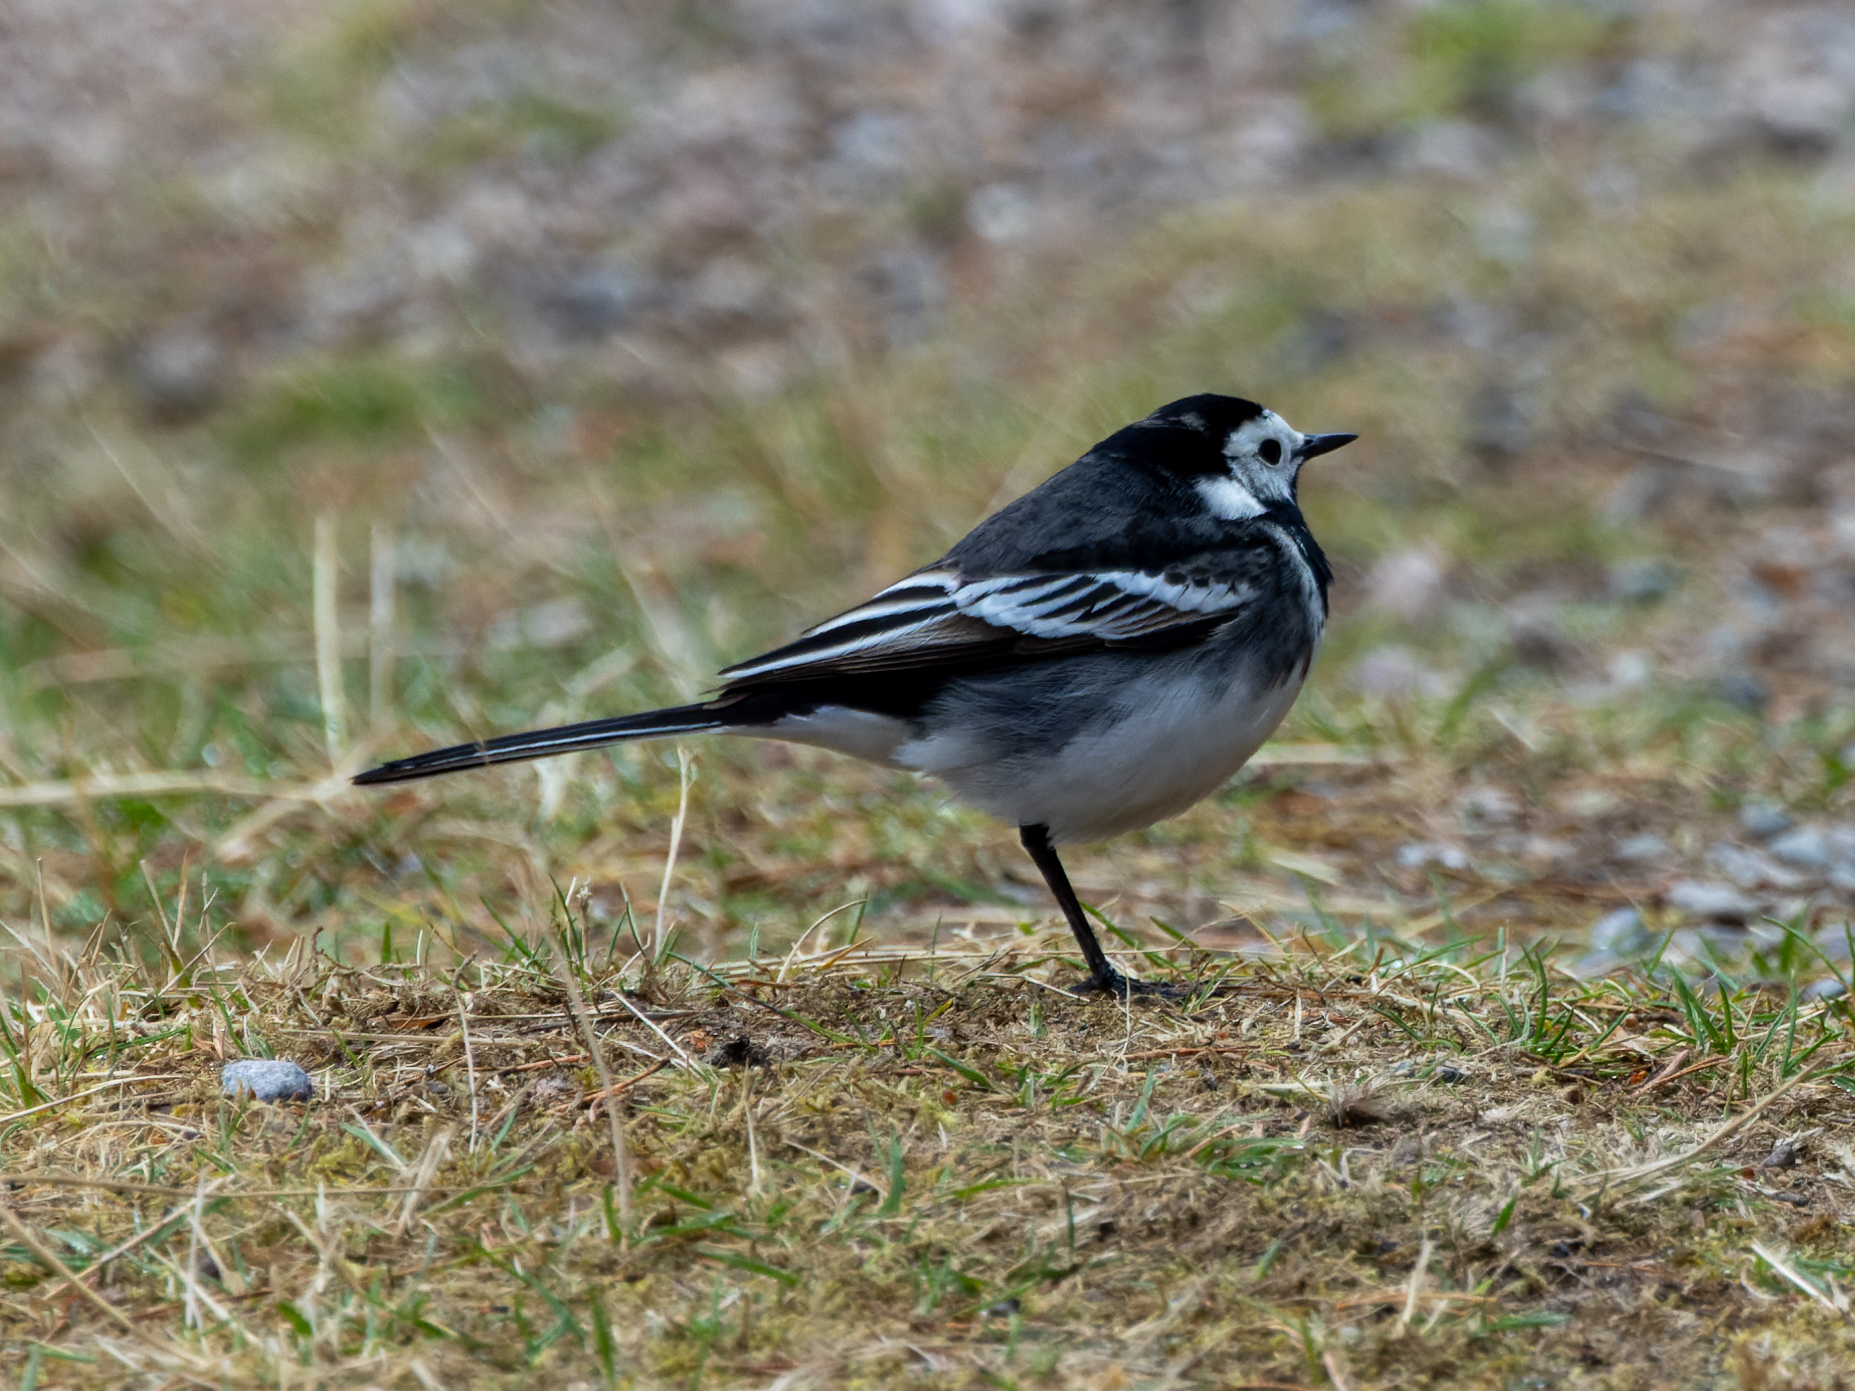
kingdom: Animalia
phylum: Chordata
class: Aves
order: Passeriformes
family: Motacillidae
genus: Motacilla
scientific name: Motacilla alba
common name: White wagtail
